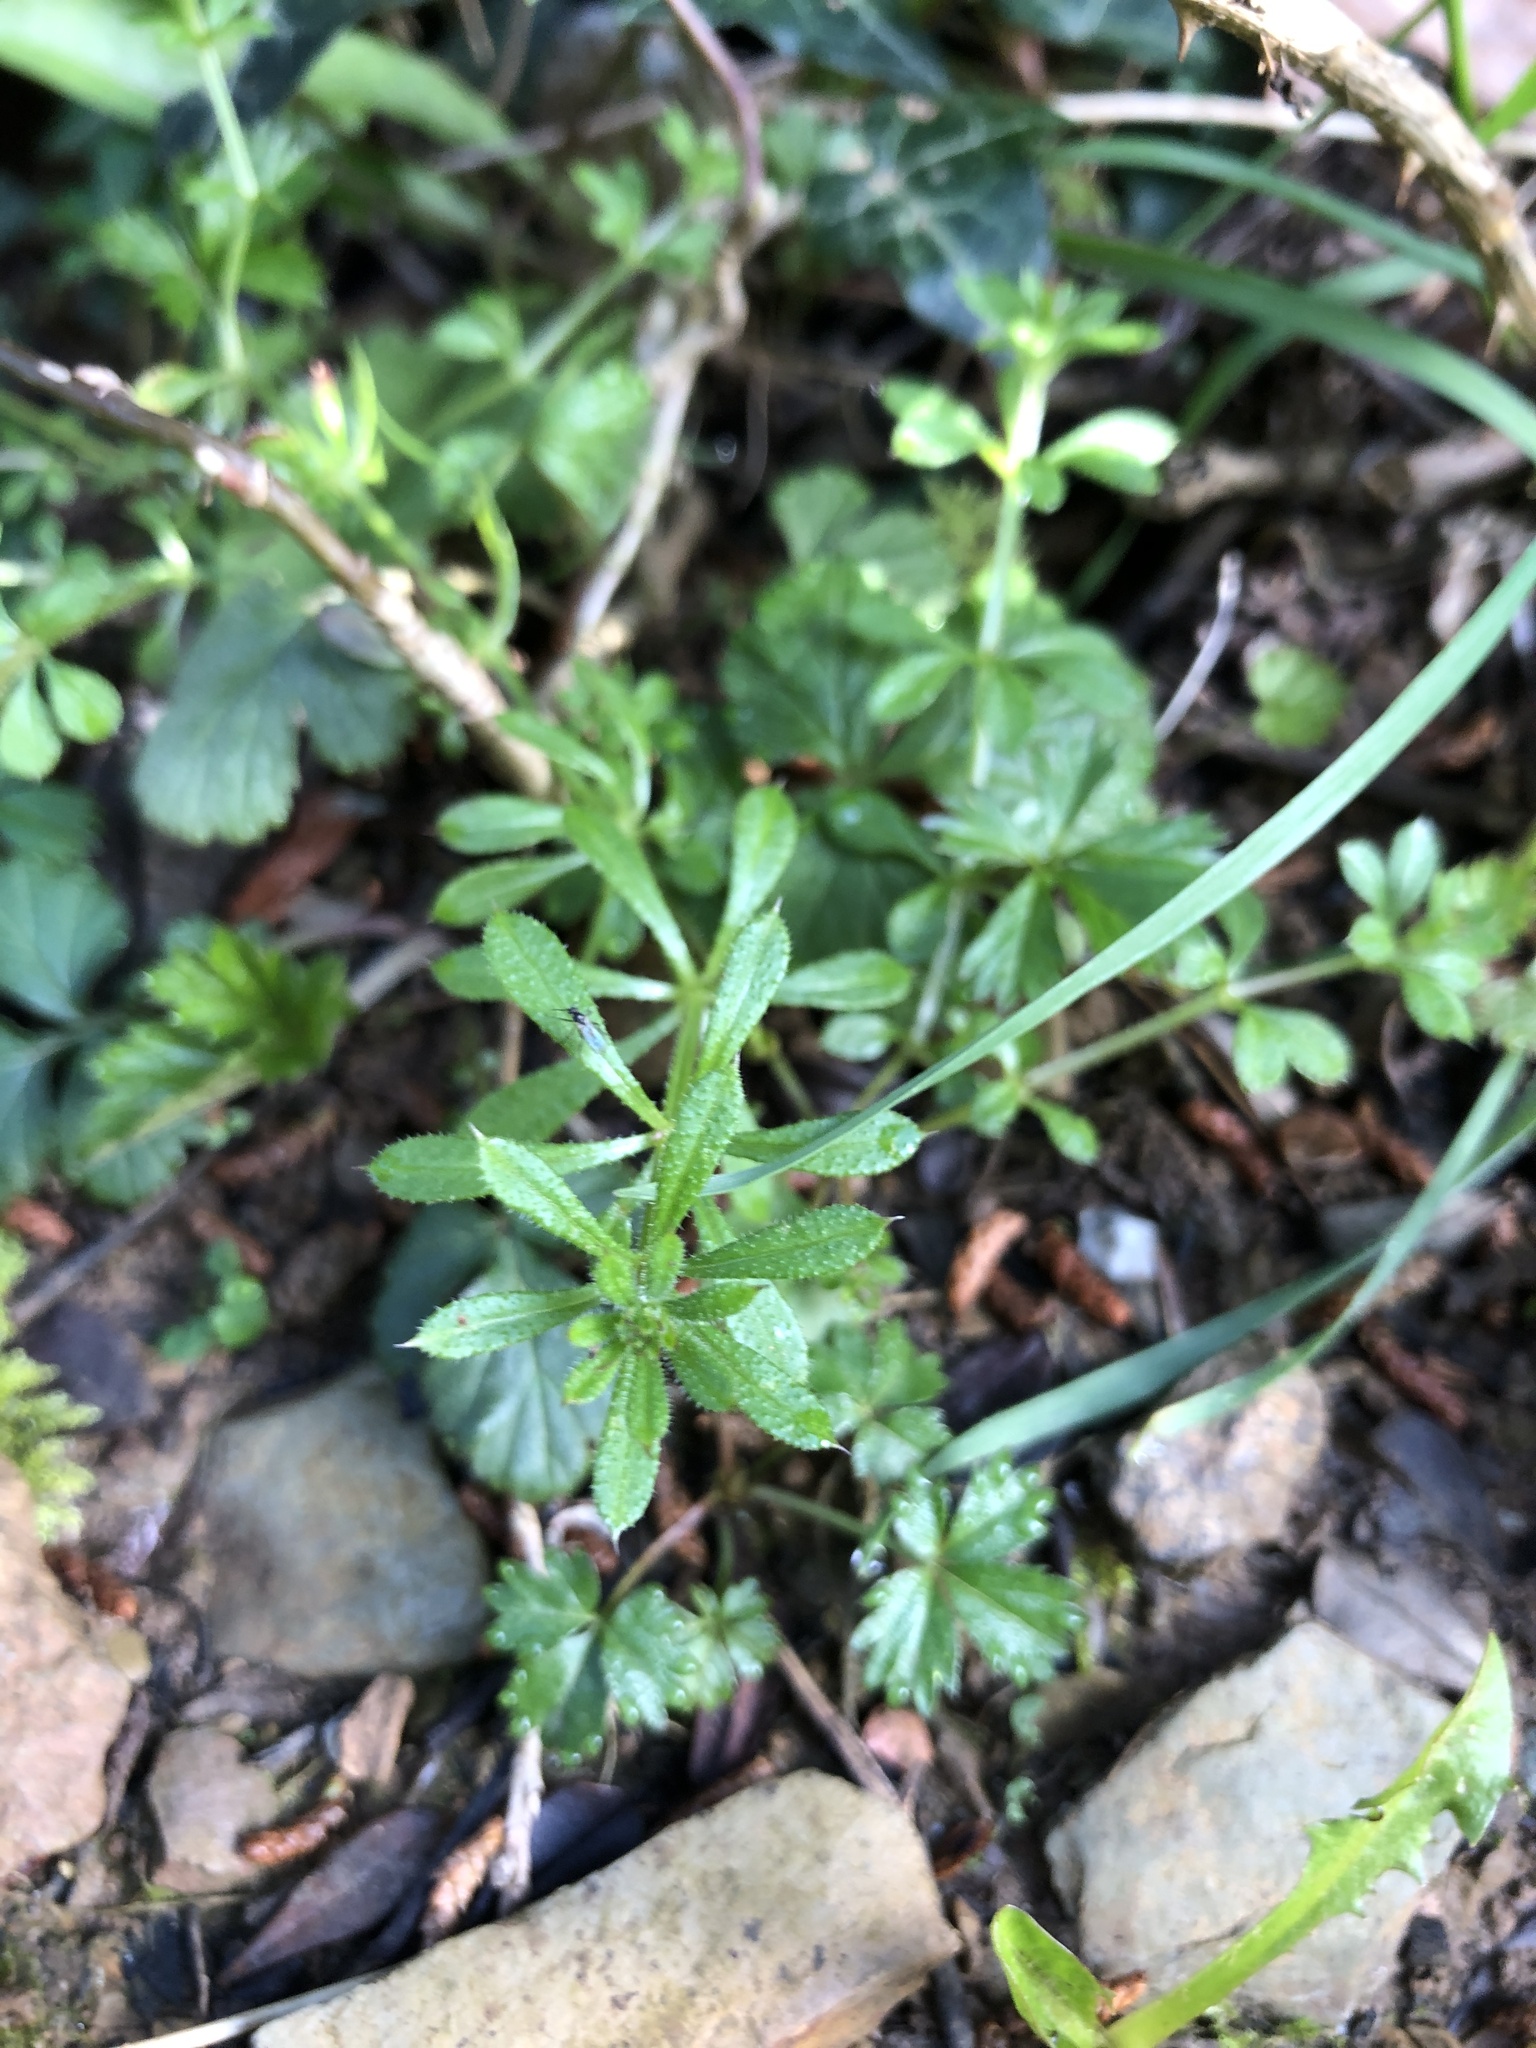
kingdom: Plantae
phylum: Tracheophyta
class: Magnoliopsida
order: Gentianales
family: Rubiaceae
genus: Galium
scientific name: Galium aparine
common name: Cleavers
